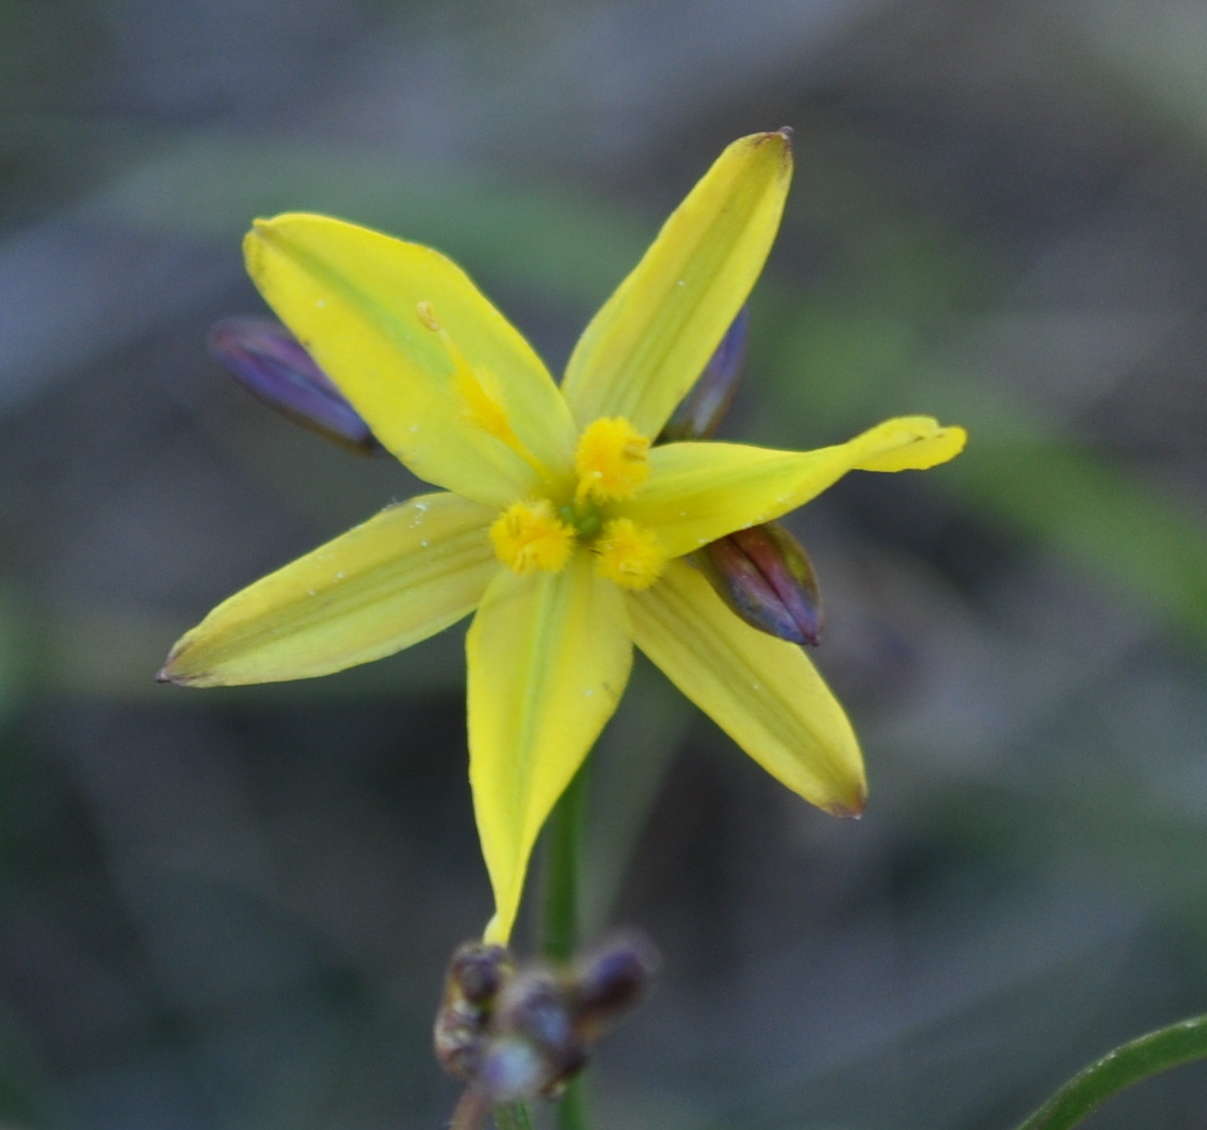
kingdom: Plantae
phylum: Tracheophyta
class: Liliopsida
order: Asparagales
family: Asphodelaceae
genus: Tricoryne
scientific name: Tricoryne elatior
